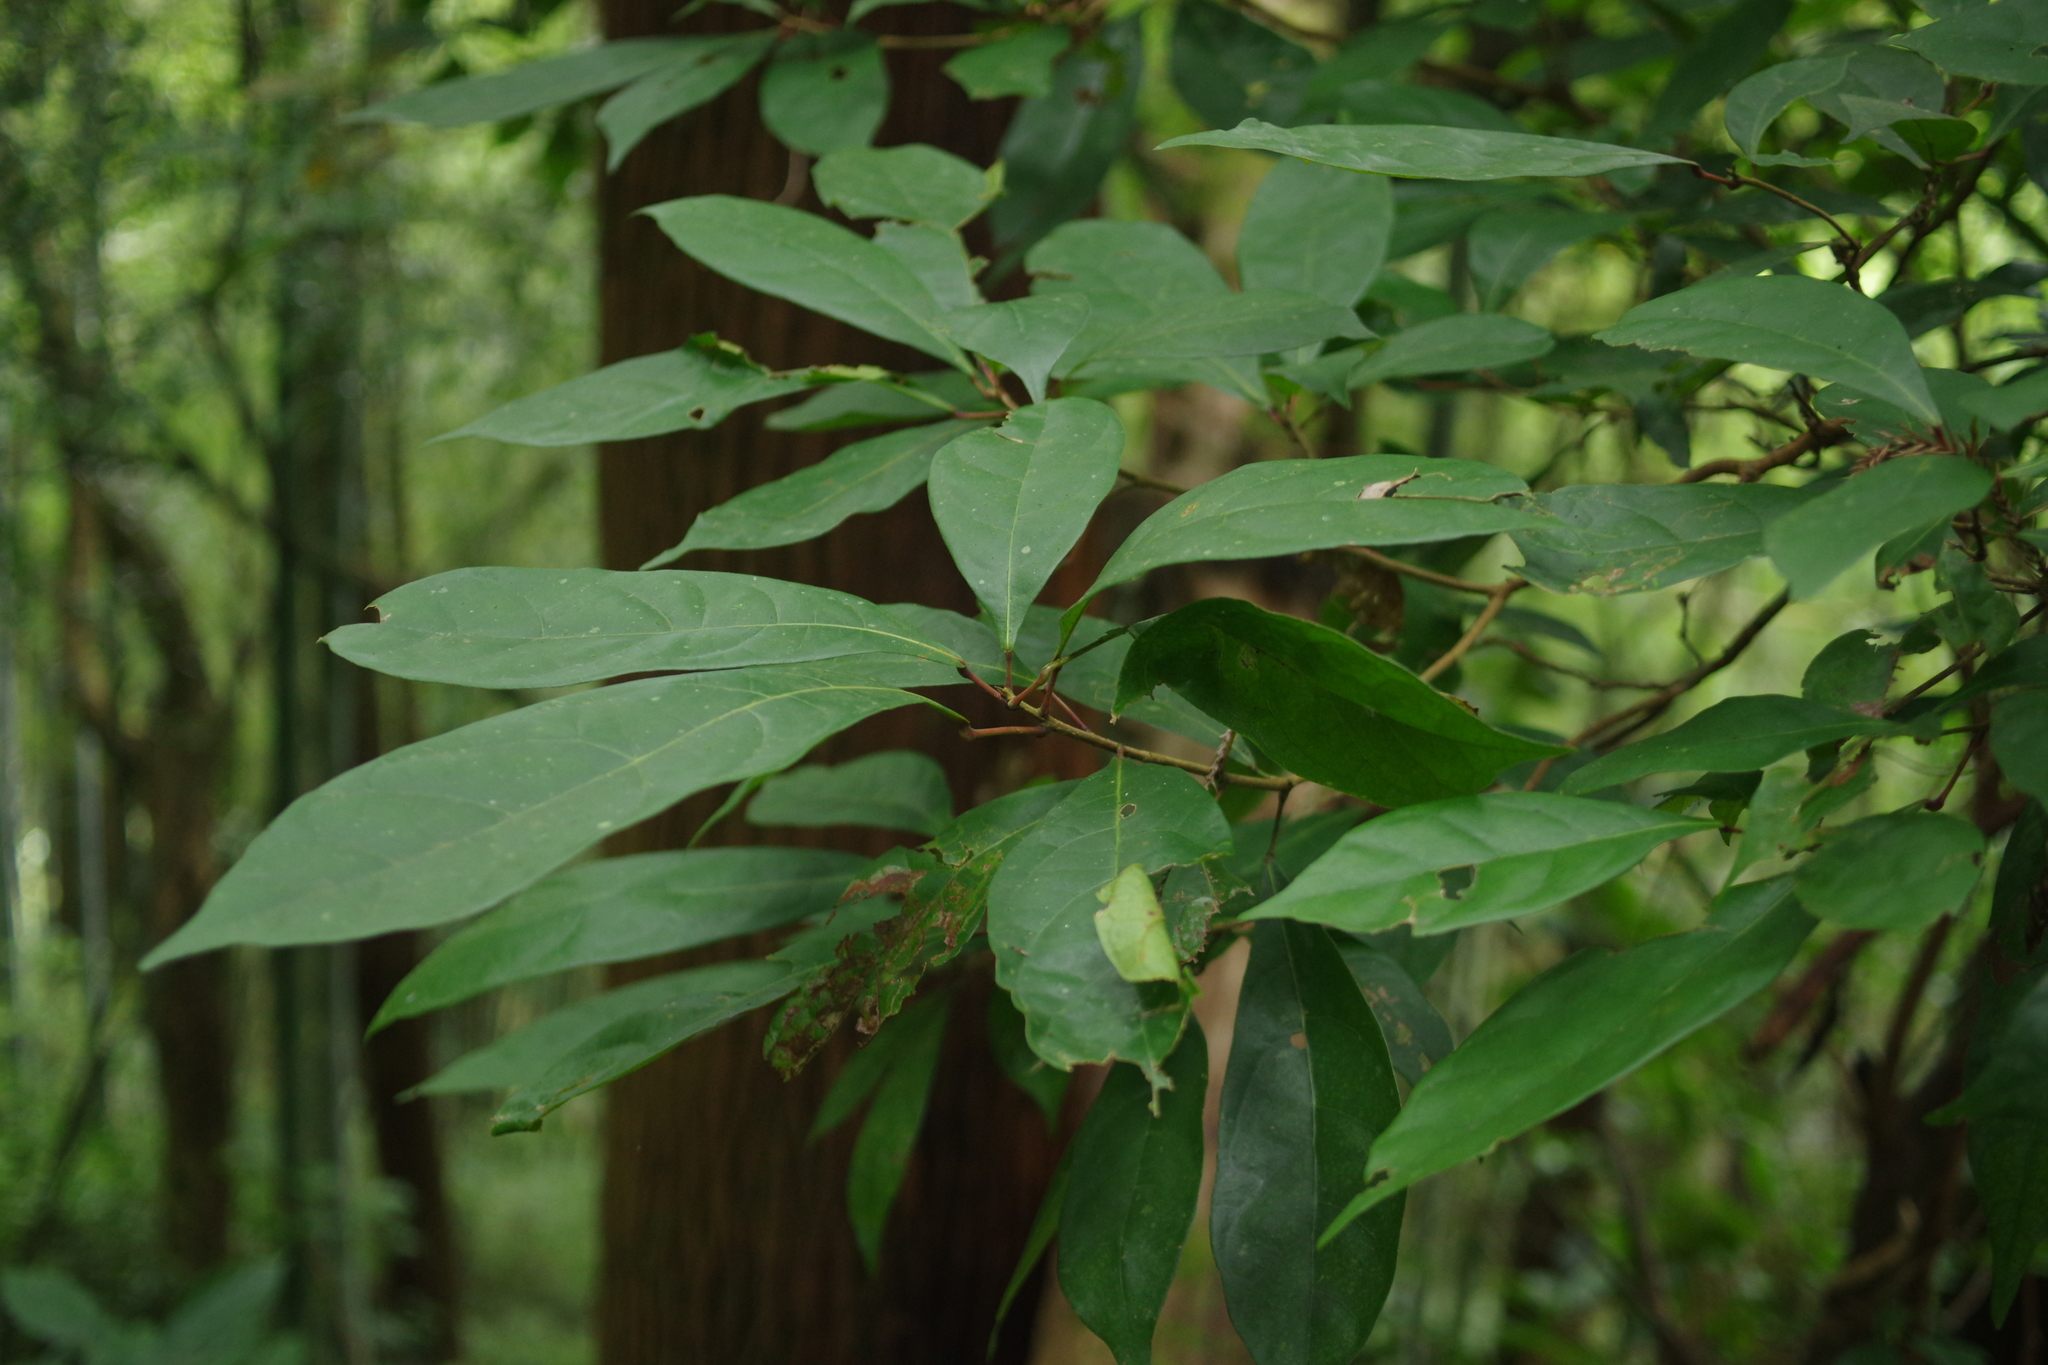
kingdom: Plantae
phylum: Tracheophyta
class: Magnoliopsida
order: Oxalidales
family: Elaeocarpaceae
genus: Sloanea
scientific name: Sloanea dasycarpa
